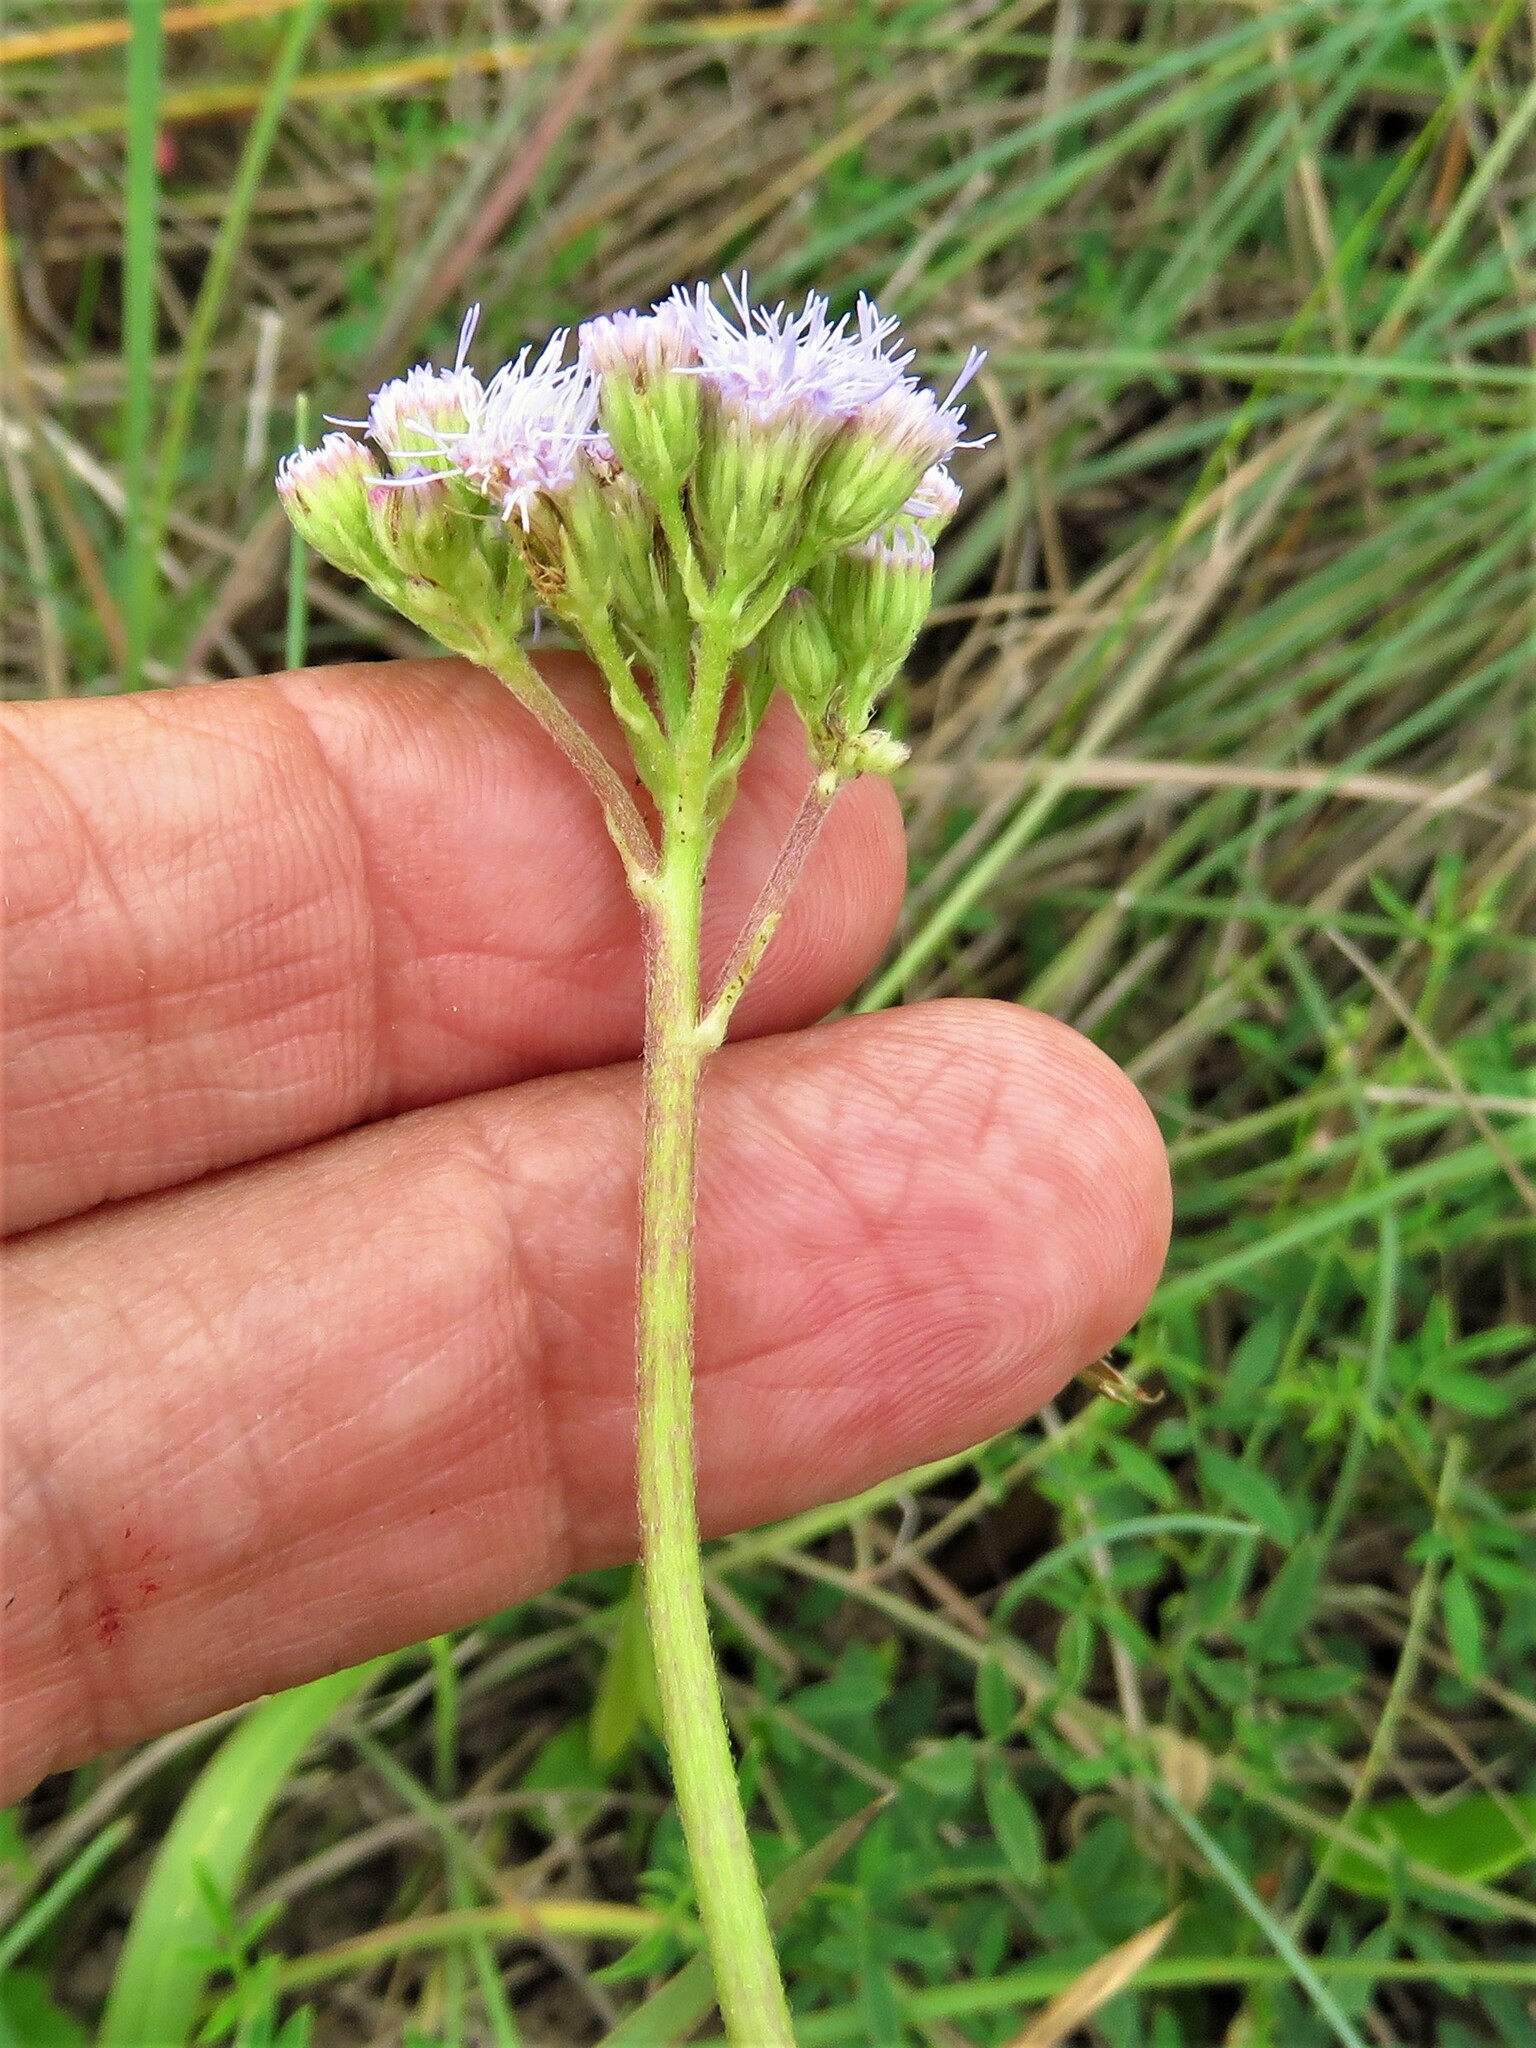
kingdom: Plantae
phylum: Tracheophyta
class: Magnoliopsida
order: Asterales
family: Asteraceae
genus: Conoclinium
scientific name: Conoclinium betonicifolium
